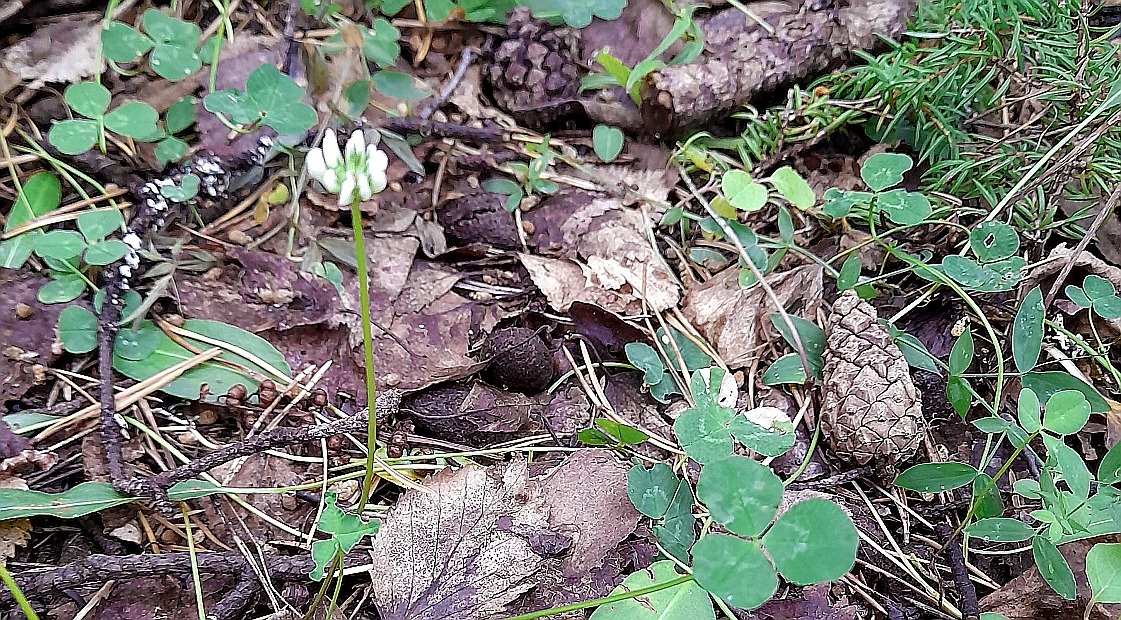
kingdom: Plantae
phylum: Tracheophyta
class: Magnoliopsida
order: Fabales
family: Fabaceae
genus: Trifolium
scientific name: Trifolium repens
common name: White clover
